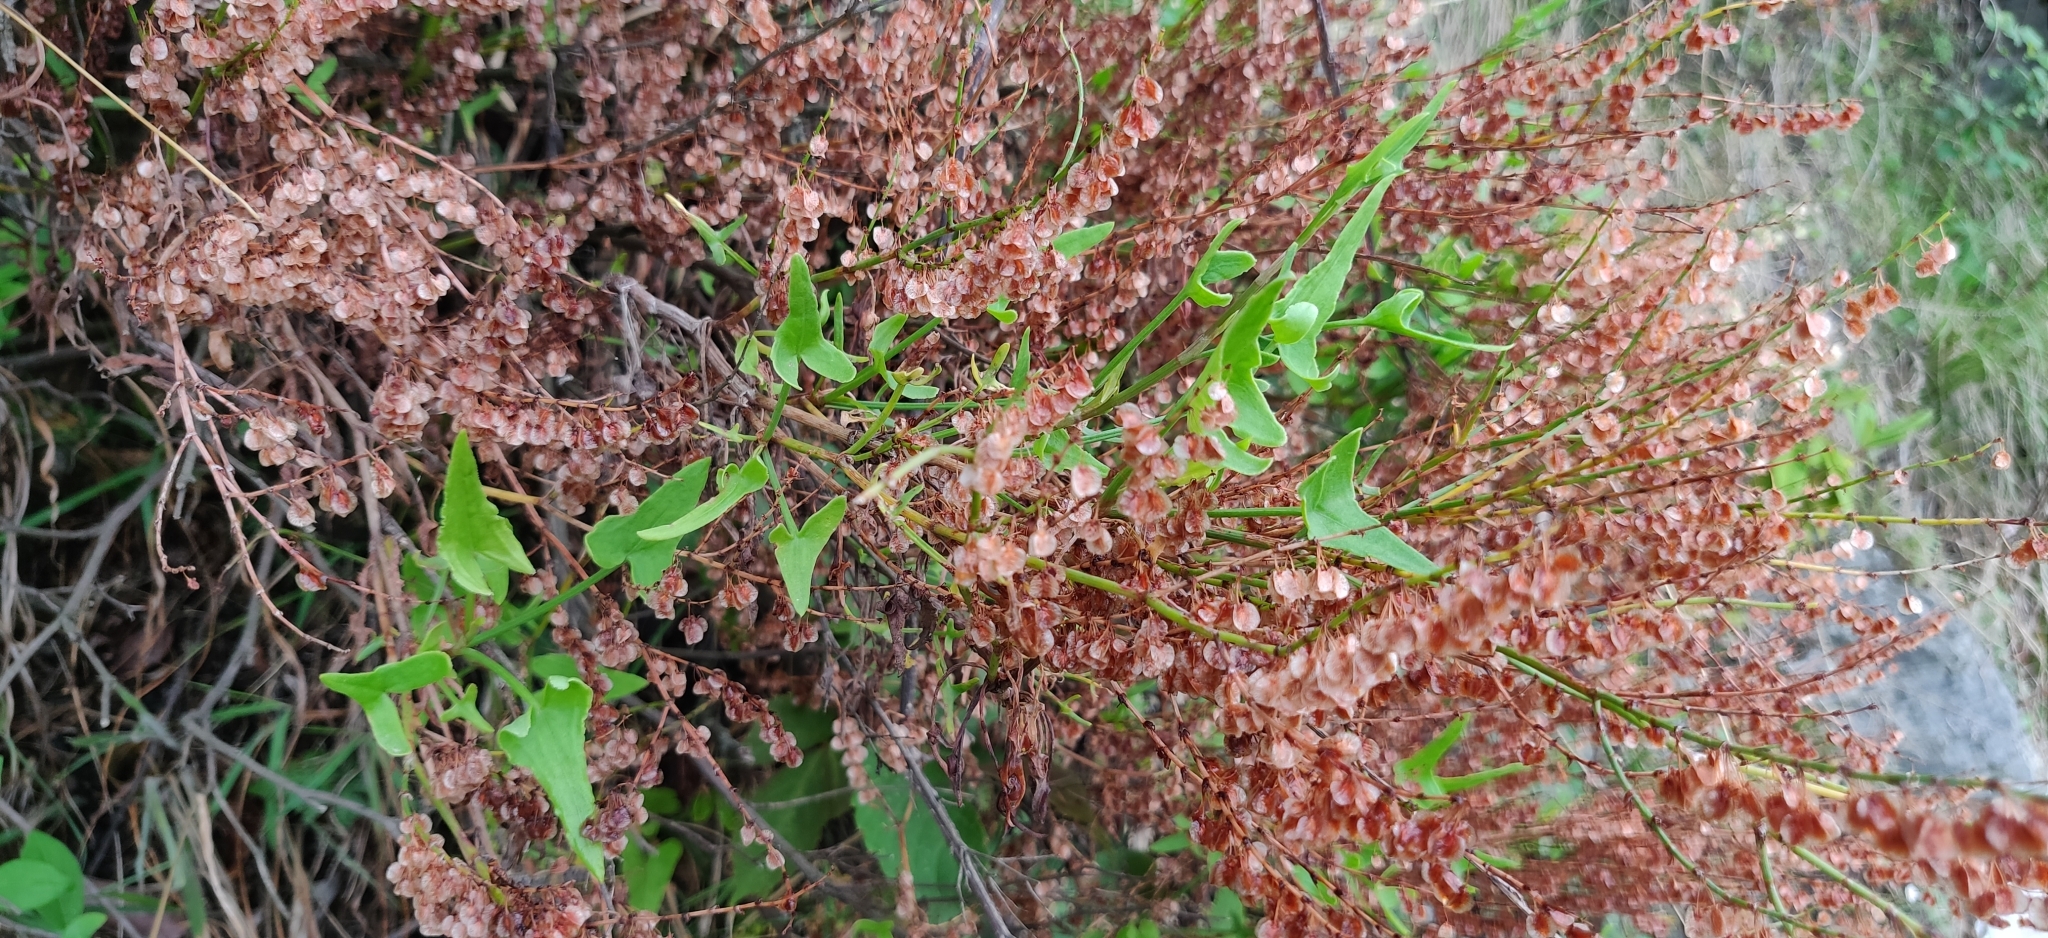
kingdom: Plantae
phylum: Tracheophyta
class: Magnoliopsida
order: Caryophyllales
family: Polygonaceae
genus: Rumex
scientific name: Rumex hastatus
